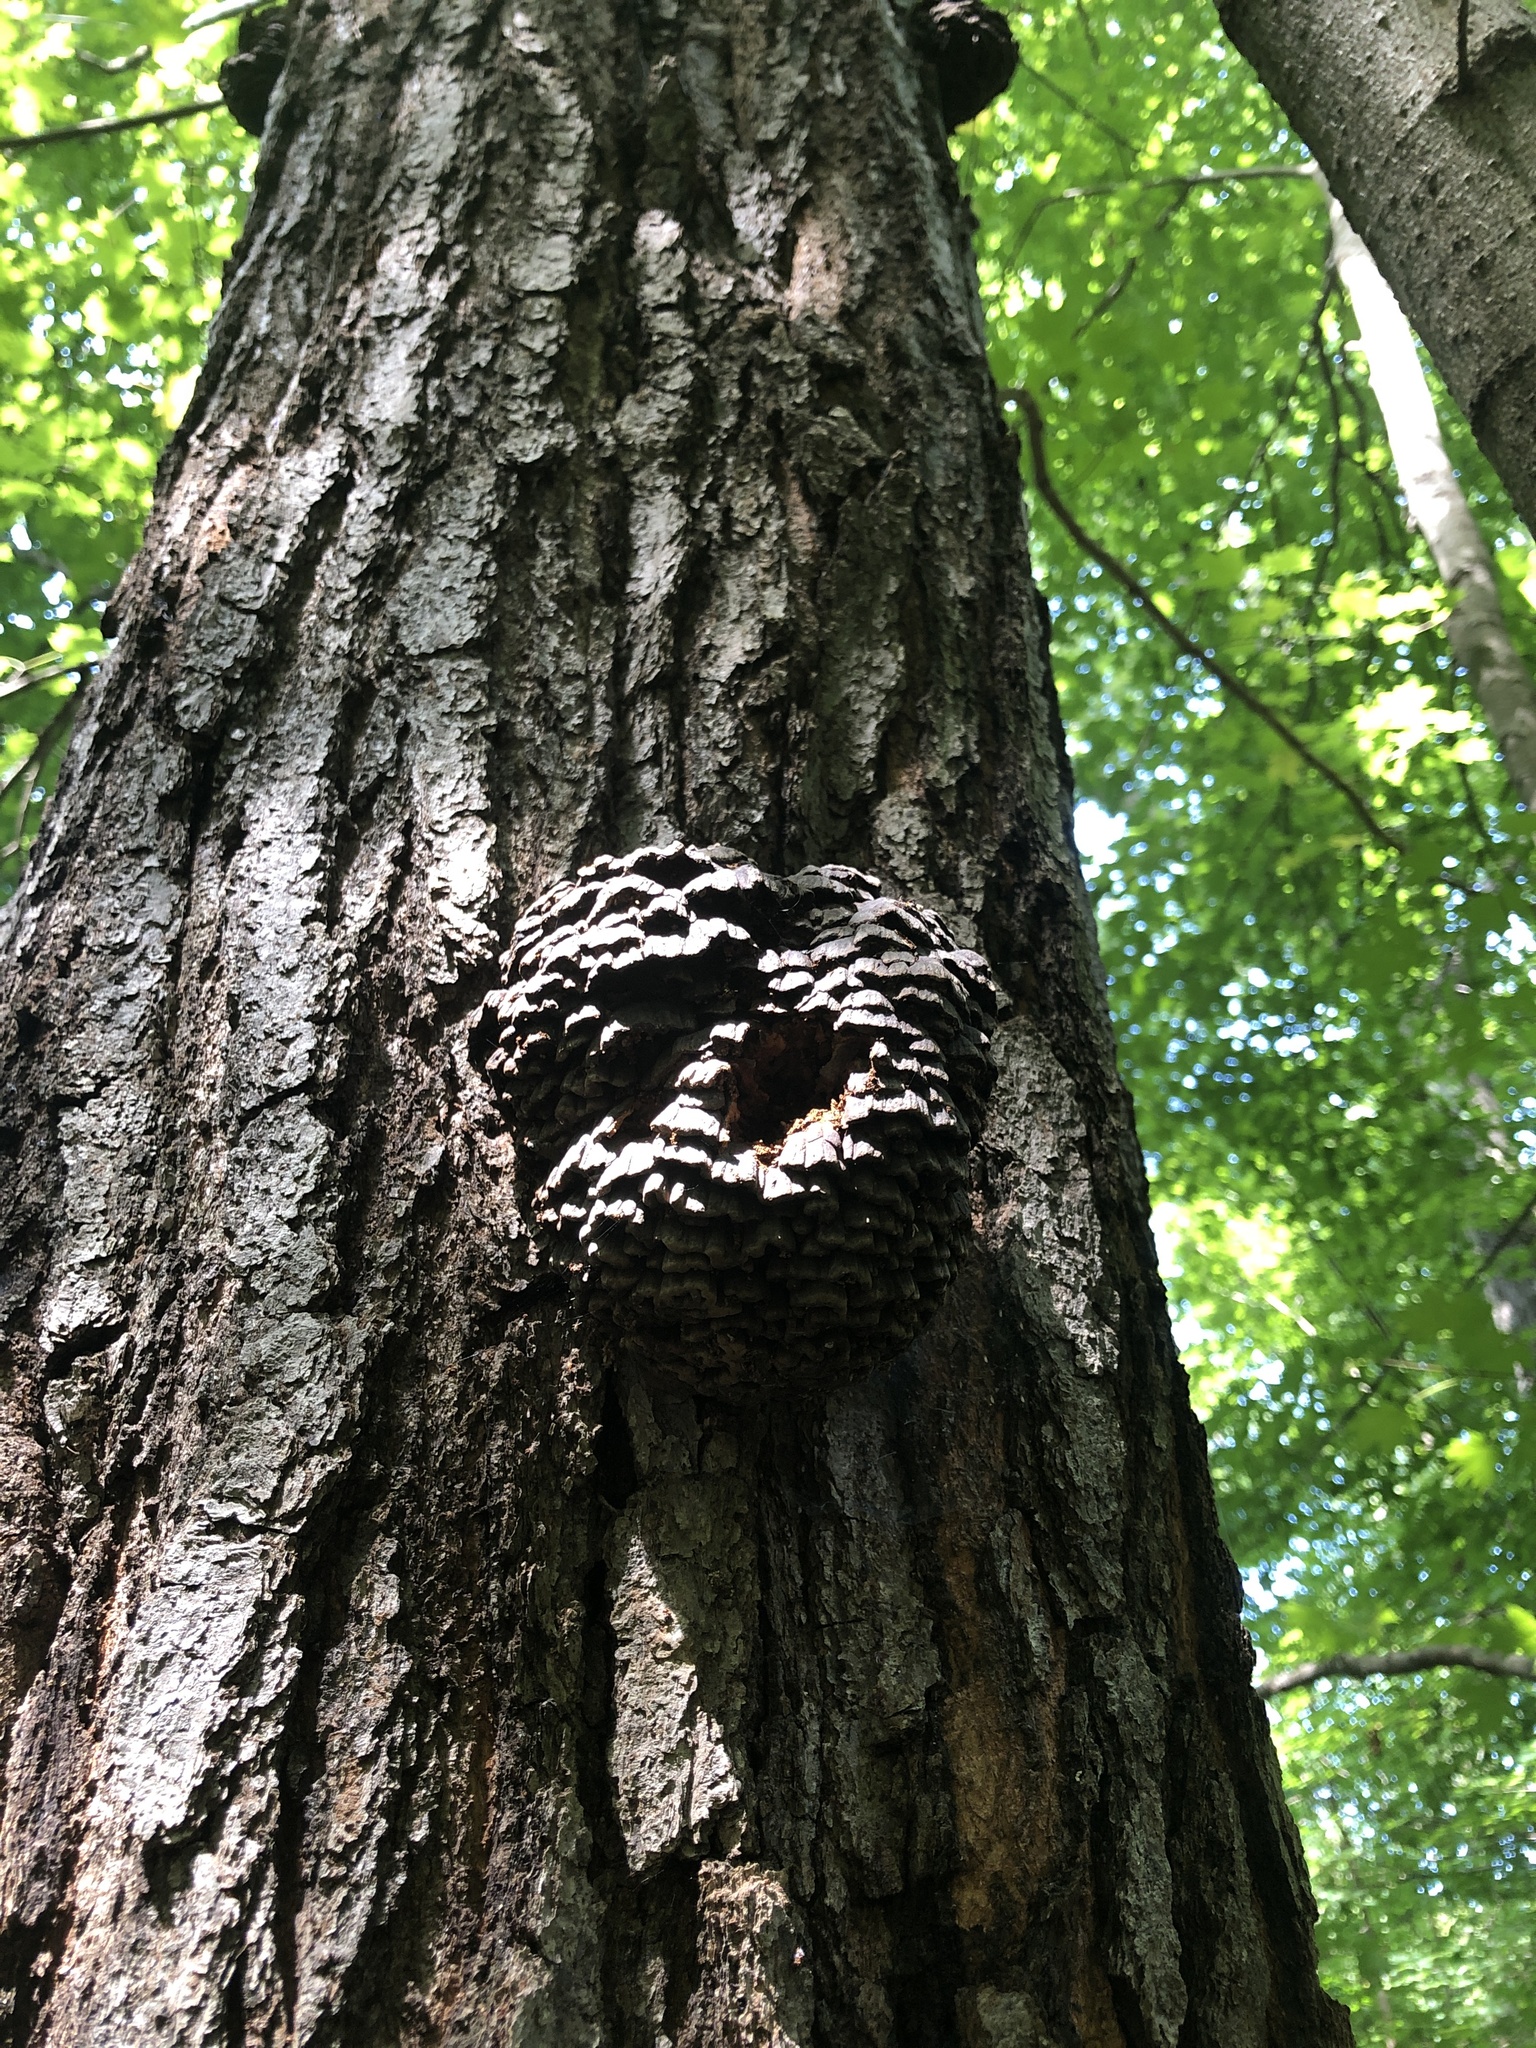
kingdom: Fungi
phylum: Basidiomycota
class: Agaricomycetes
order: Polyporales
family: Polyporaceae
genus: Globifomes
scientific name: Globifomes graveolens
